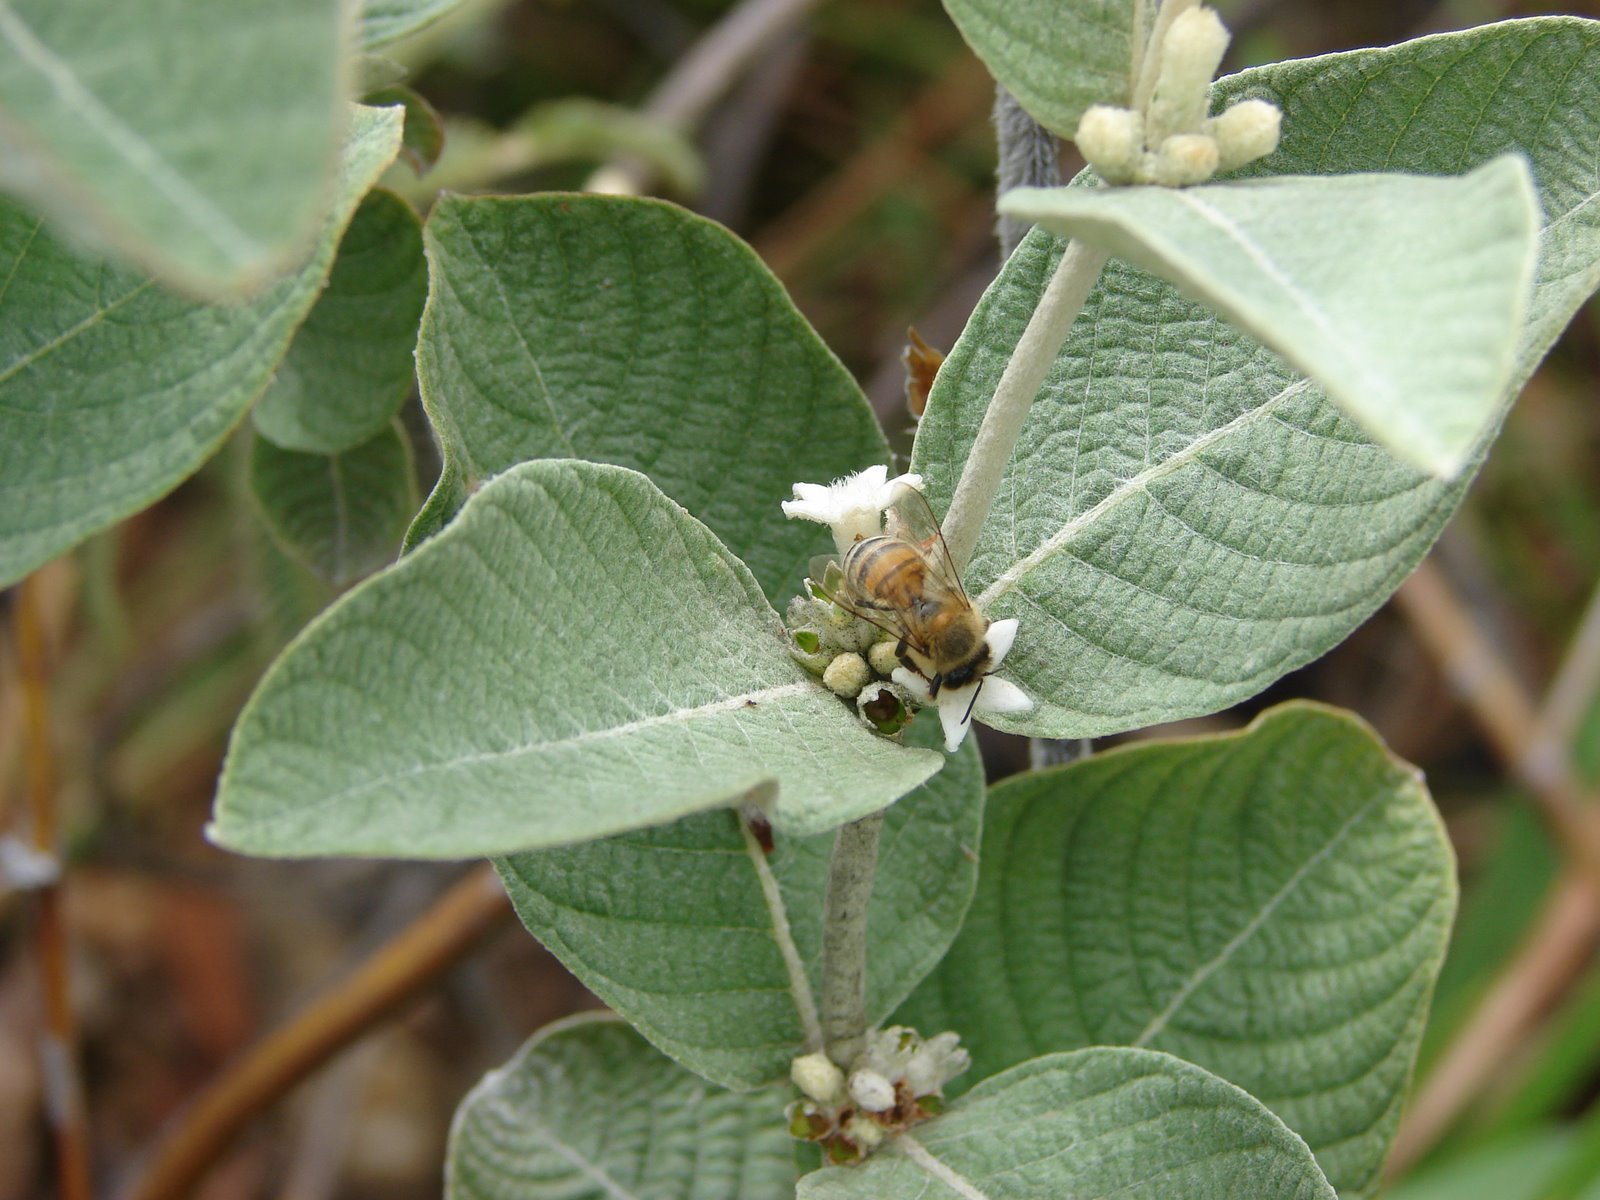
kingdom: Animalia
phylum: Arthropoda
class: Insecta
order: Hymenoptera
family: Apidae
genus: Apis
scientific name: Apis mellifera
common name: Honey bee
